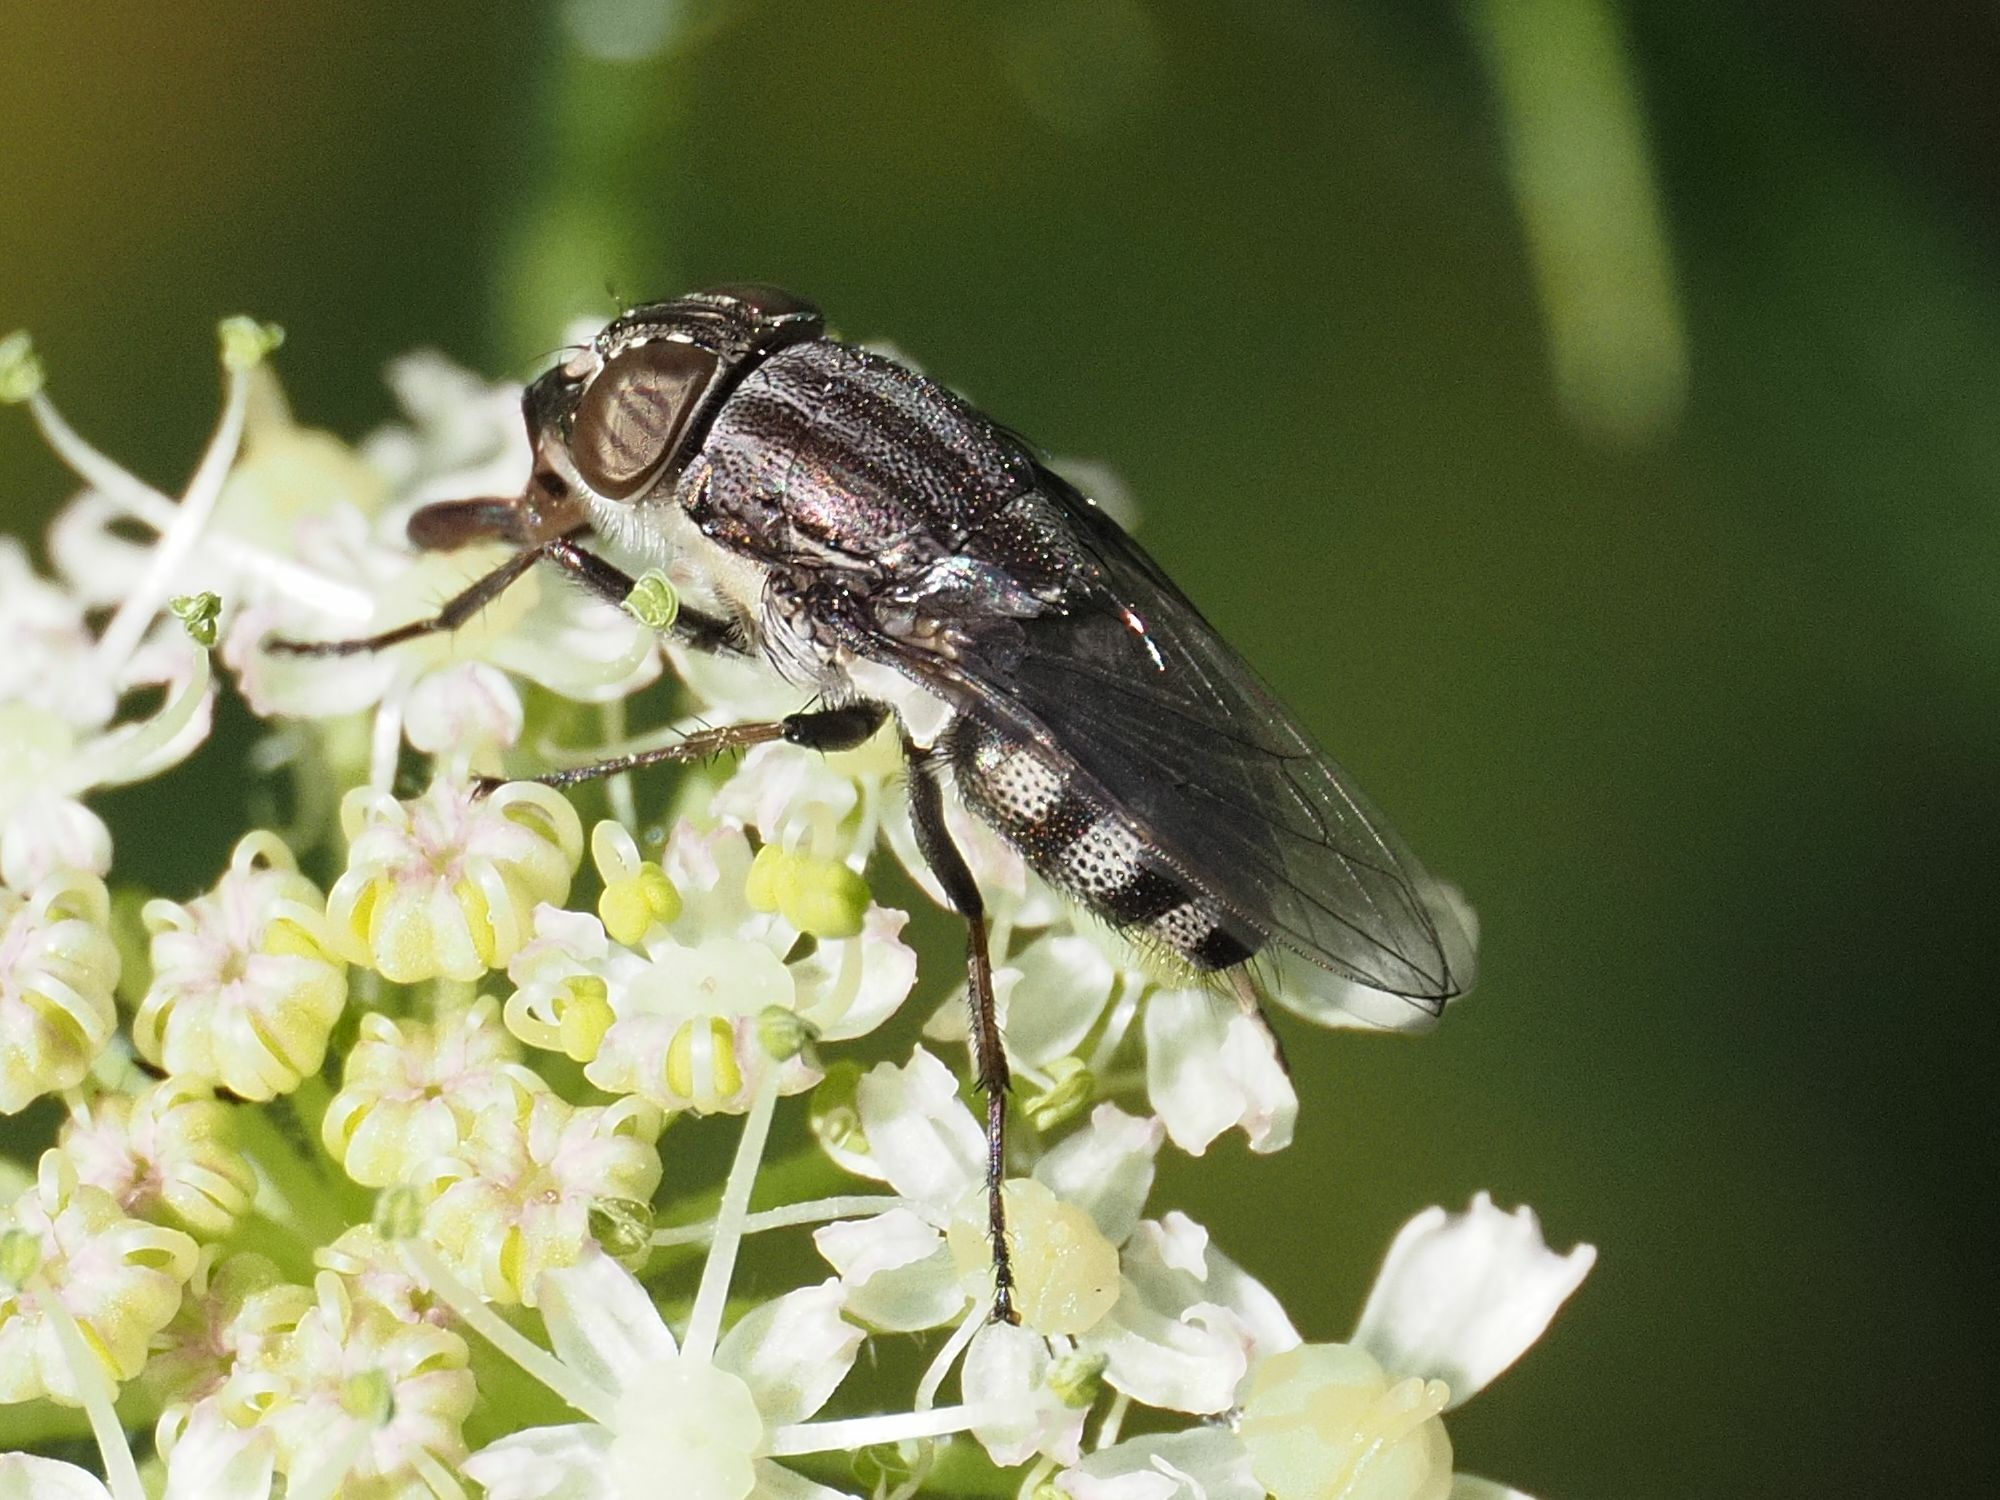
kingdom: Animalia
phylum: Arthropoda
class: Insecta
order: Diptera
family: Calliphoridae
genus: Stomorhina
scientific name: Stomorhina lunata
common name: Locust blowfly
